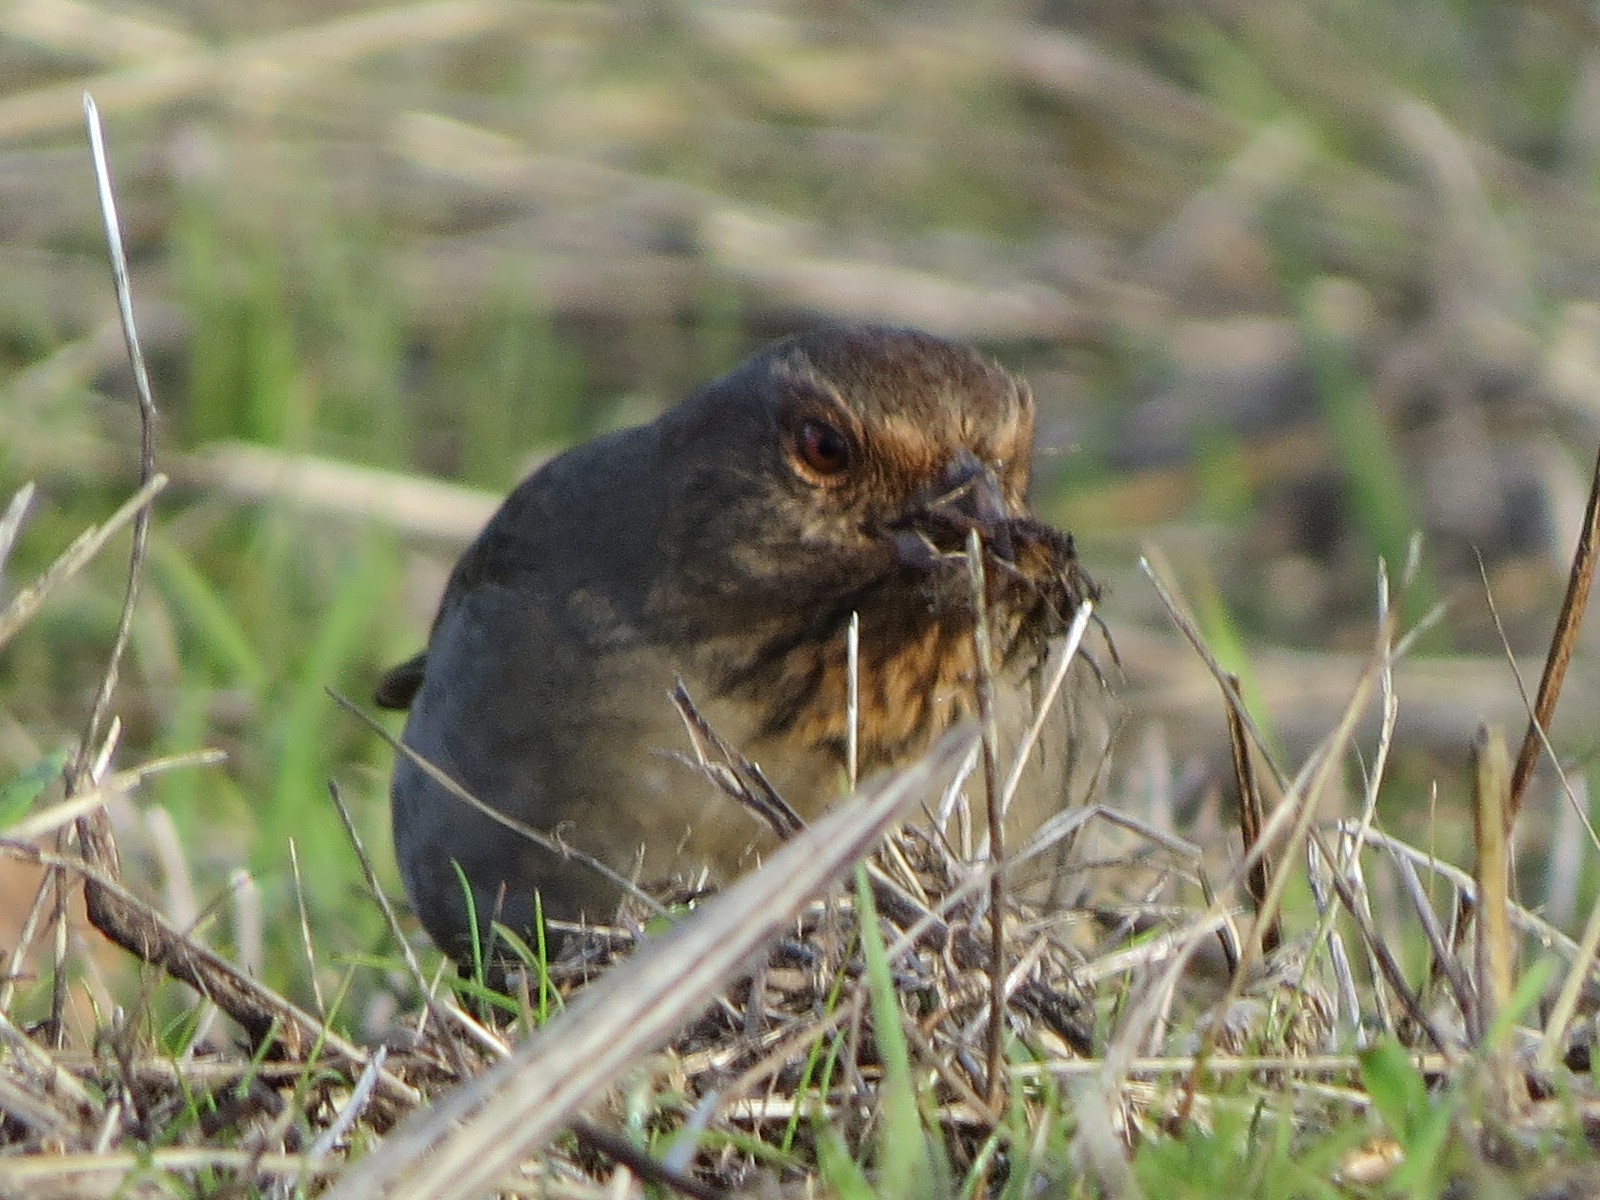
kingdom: Animalia
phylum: Chordata
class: Aves
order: Passeriformes
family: Passerellidae
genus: Melozone
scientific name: Melozone crissalis
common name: California towhee
